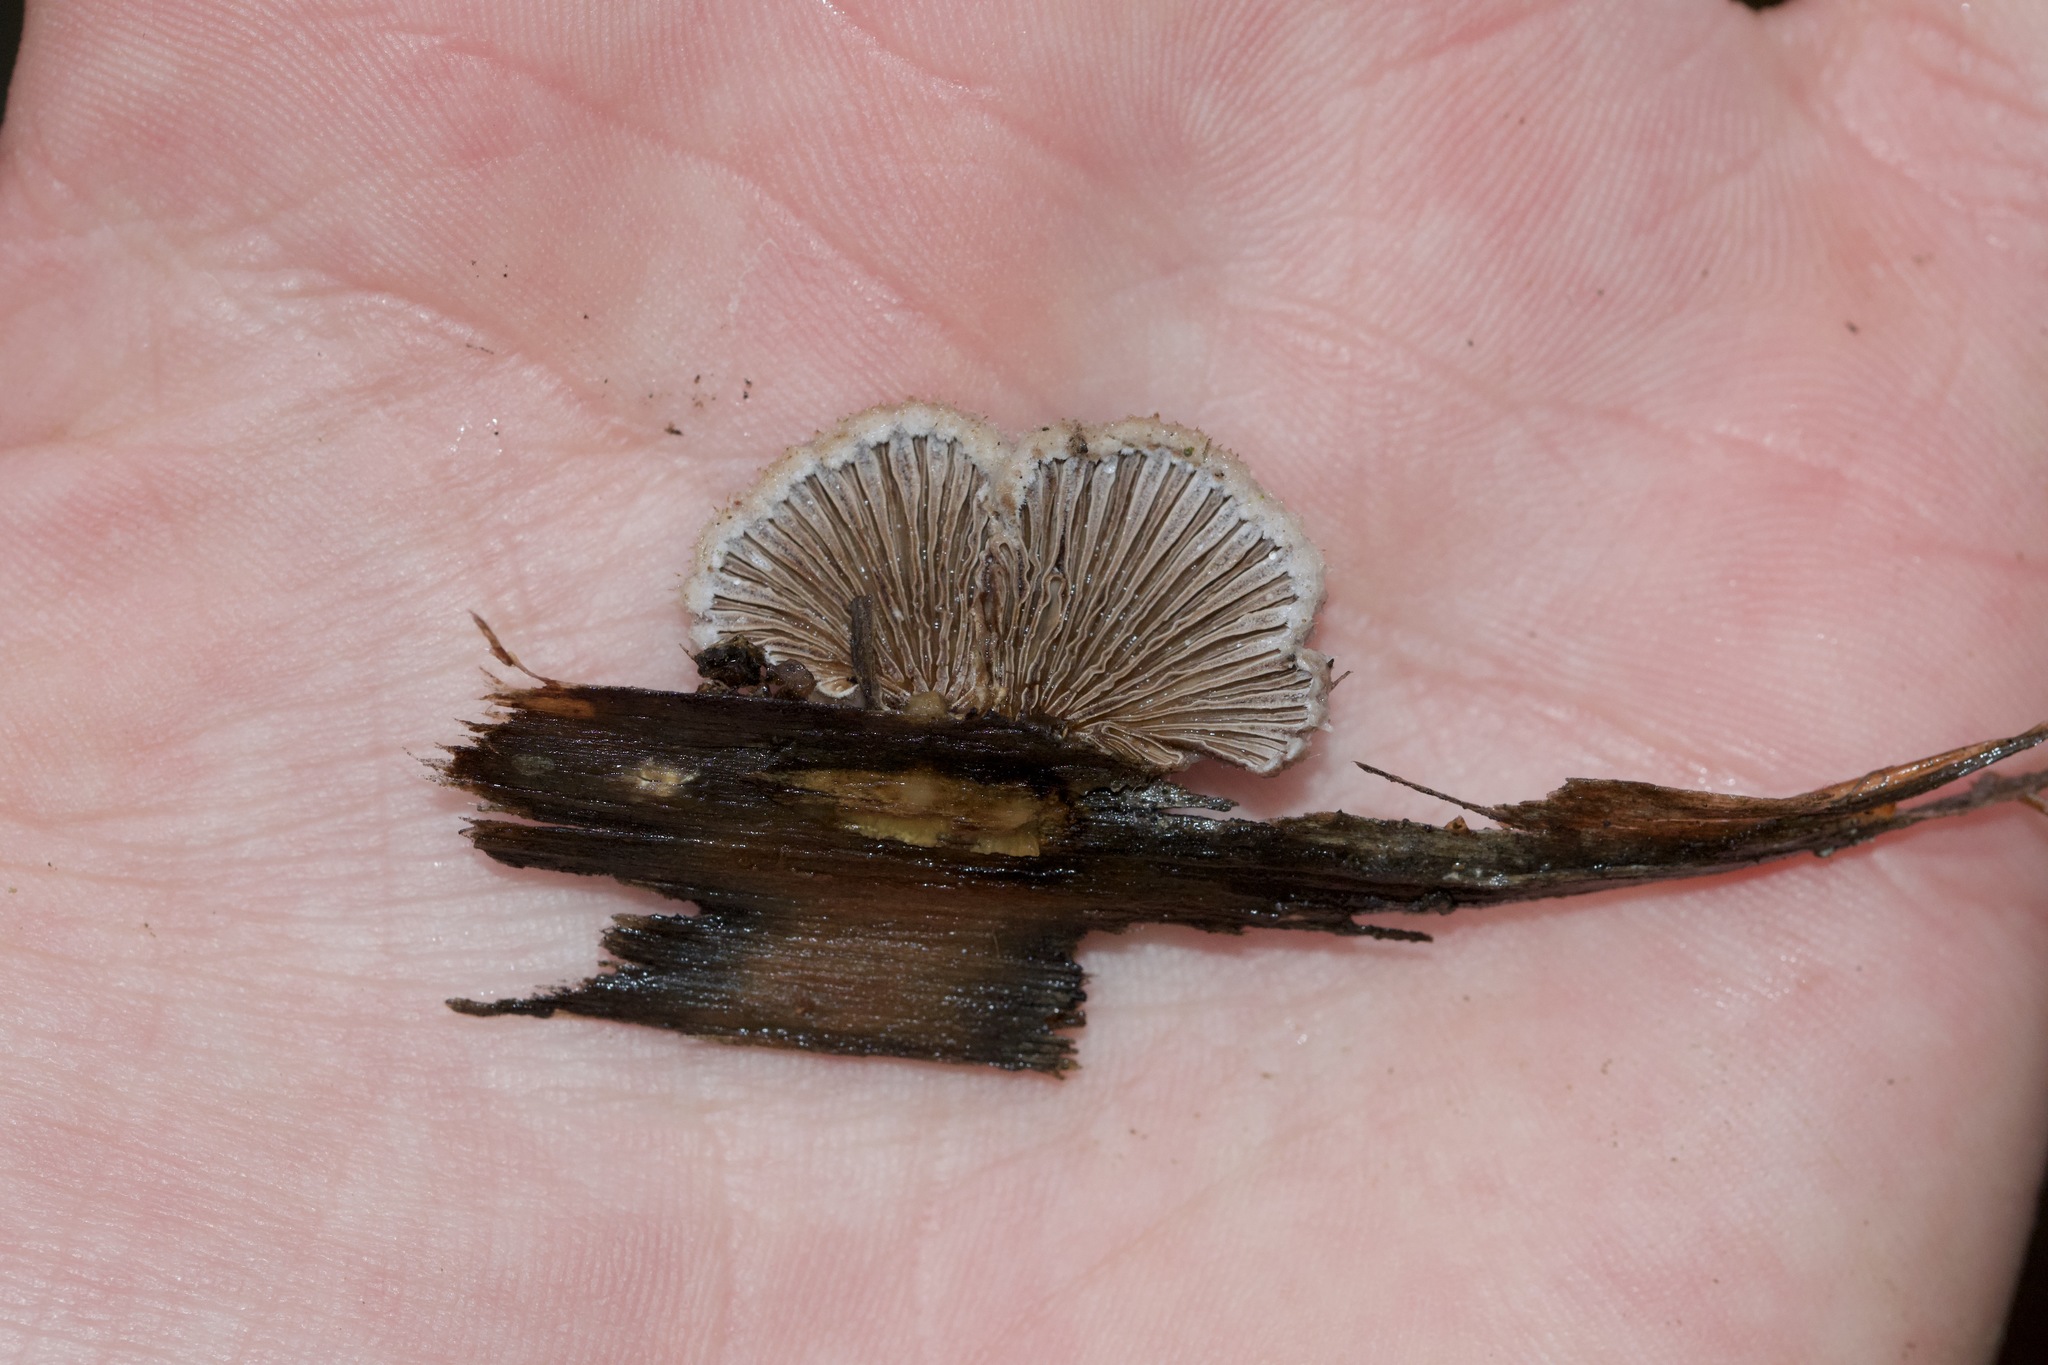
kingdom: Fungi
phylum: Basidiomycota
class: Agaricomycetes
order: Agaricales
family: Schizophyllaceae
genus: Schizophyllum
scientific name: Schizophyllum commune
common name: Common porecrust
